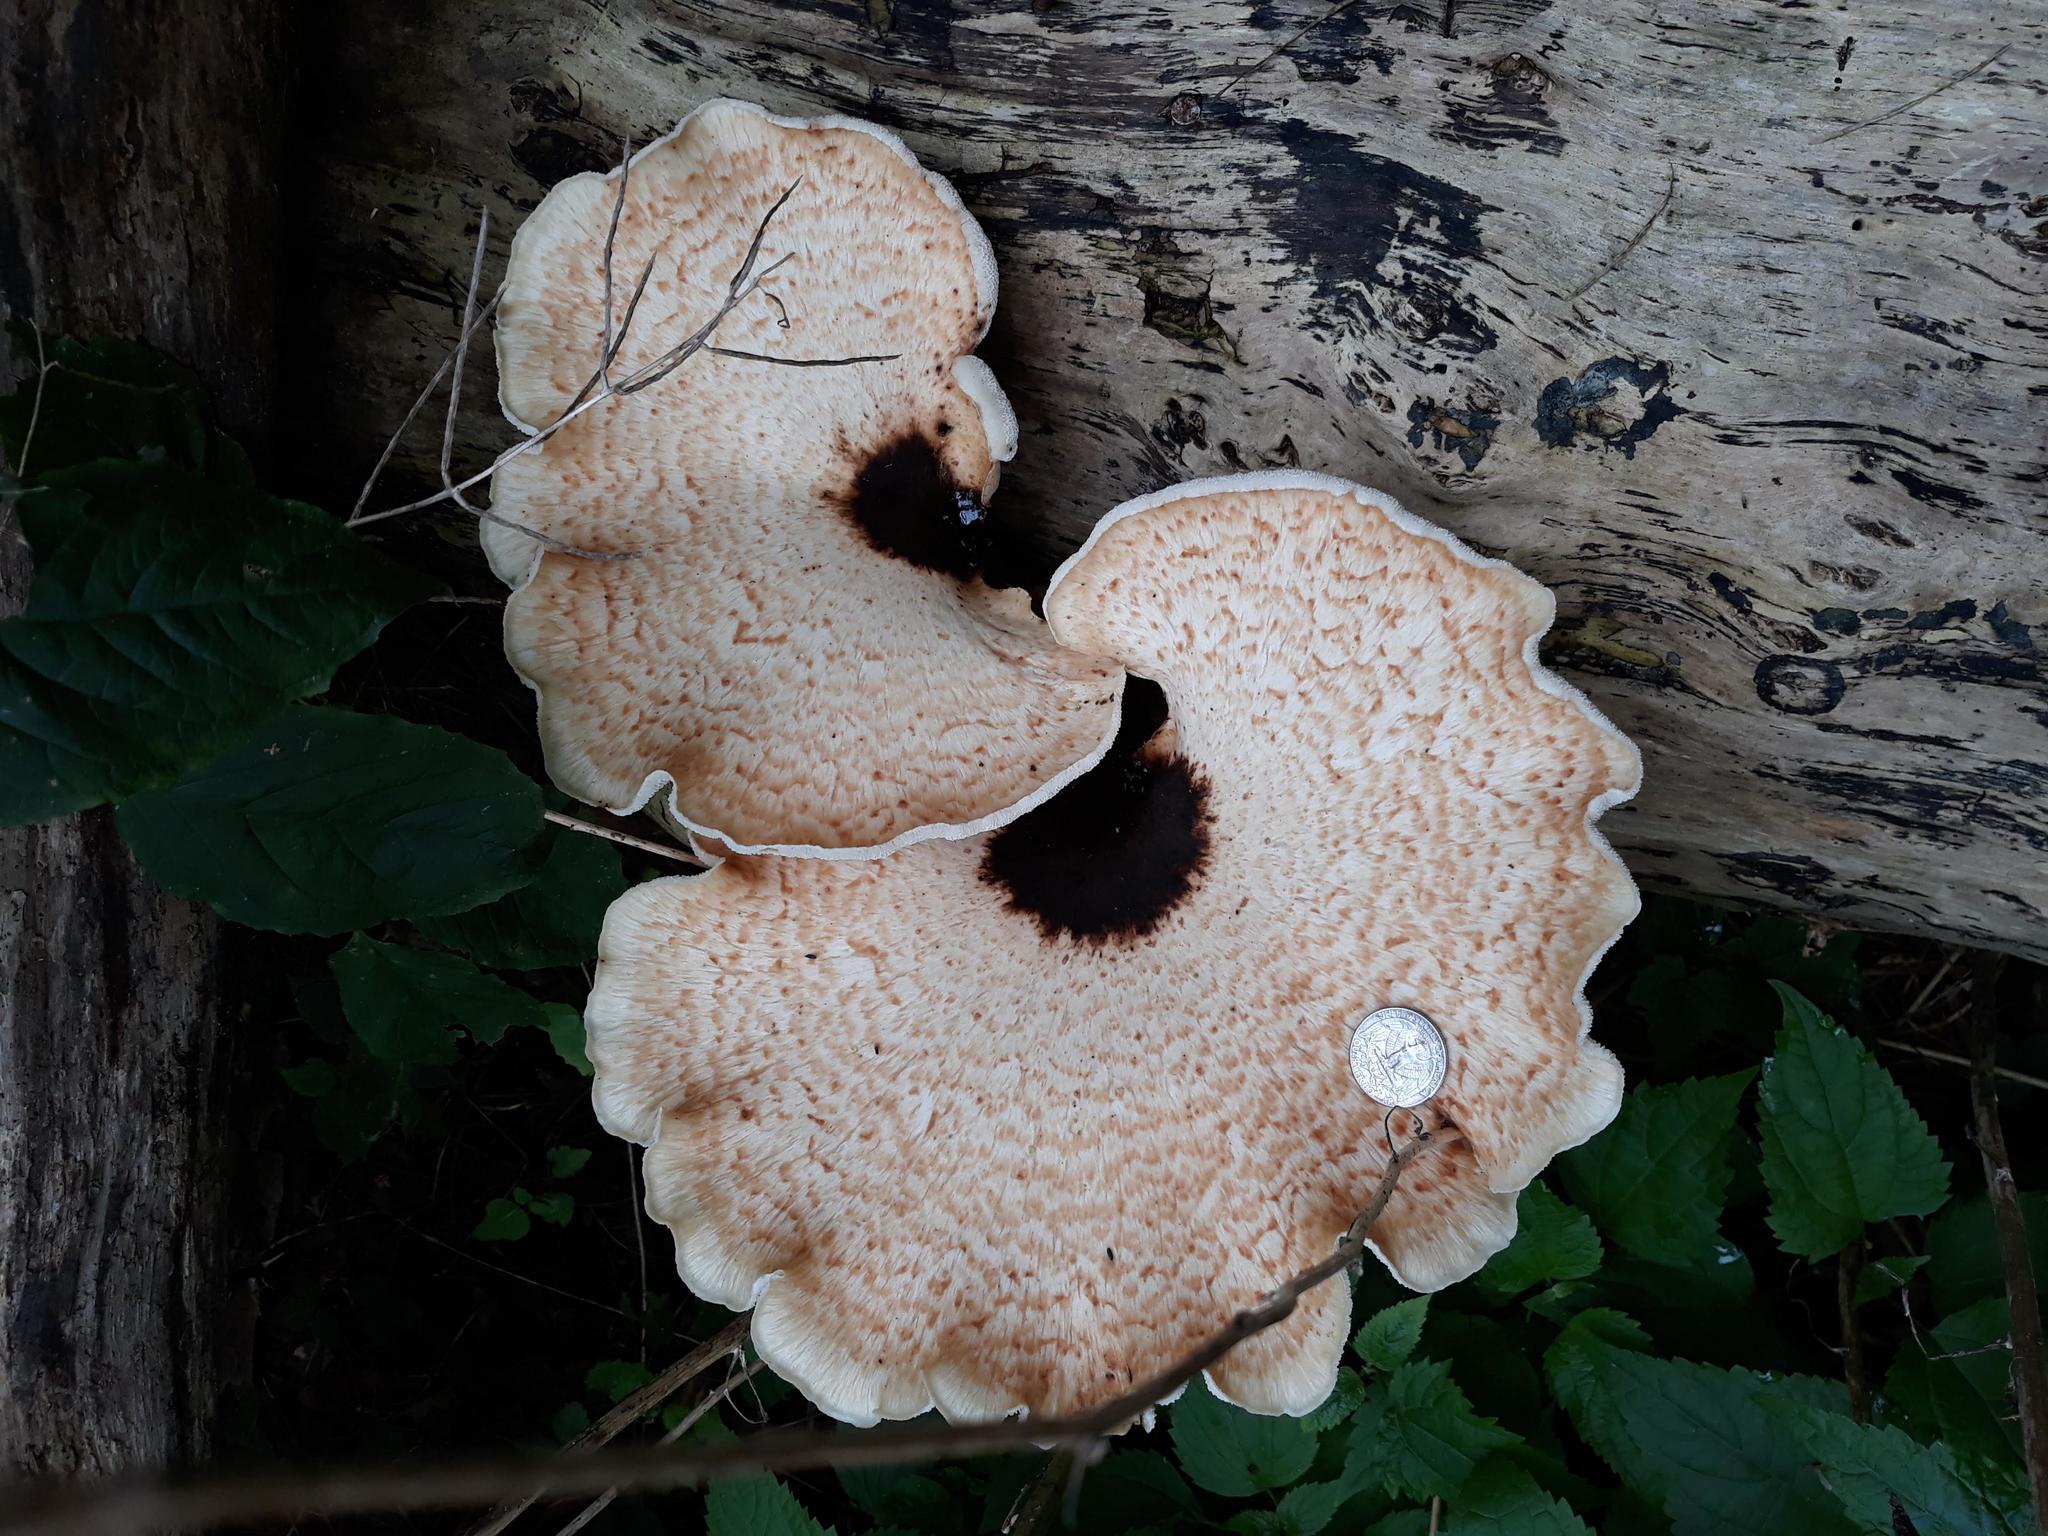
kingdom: Fungi
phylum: Basidiomycota
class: Agaricomycetes
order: Polyporales
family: Polyporaceae
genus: Cerioporus
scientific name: Cerioporus squamosus
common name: Dryad's saddle
